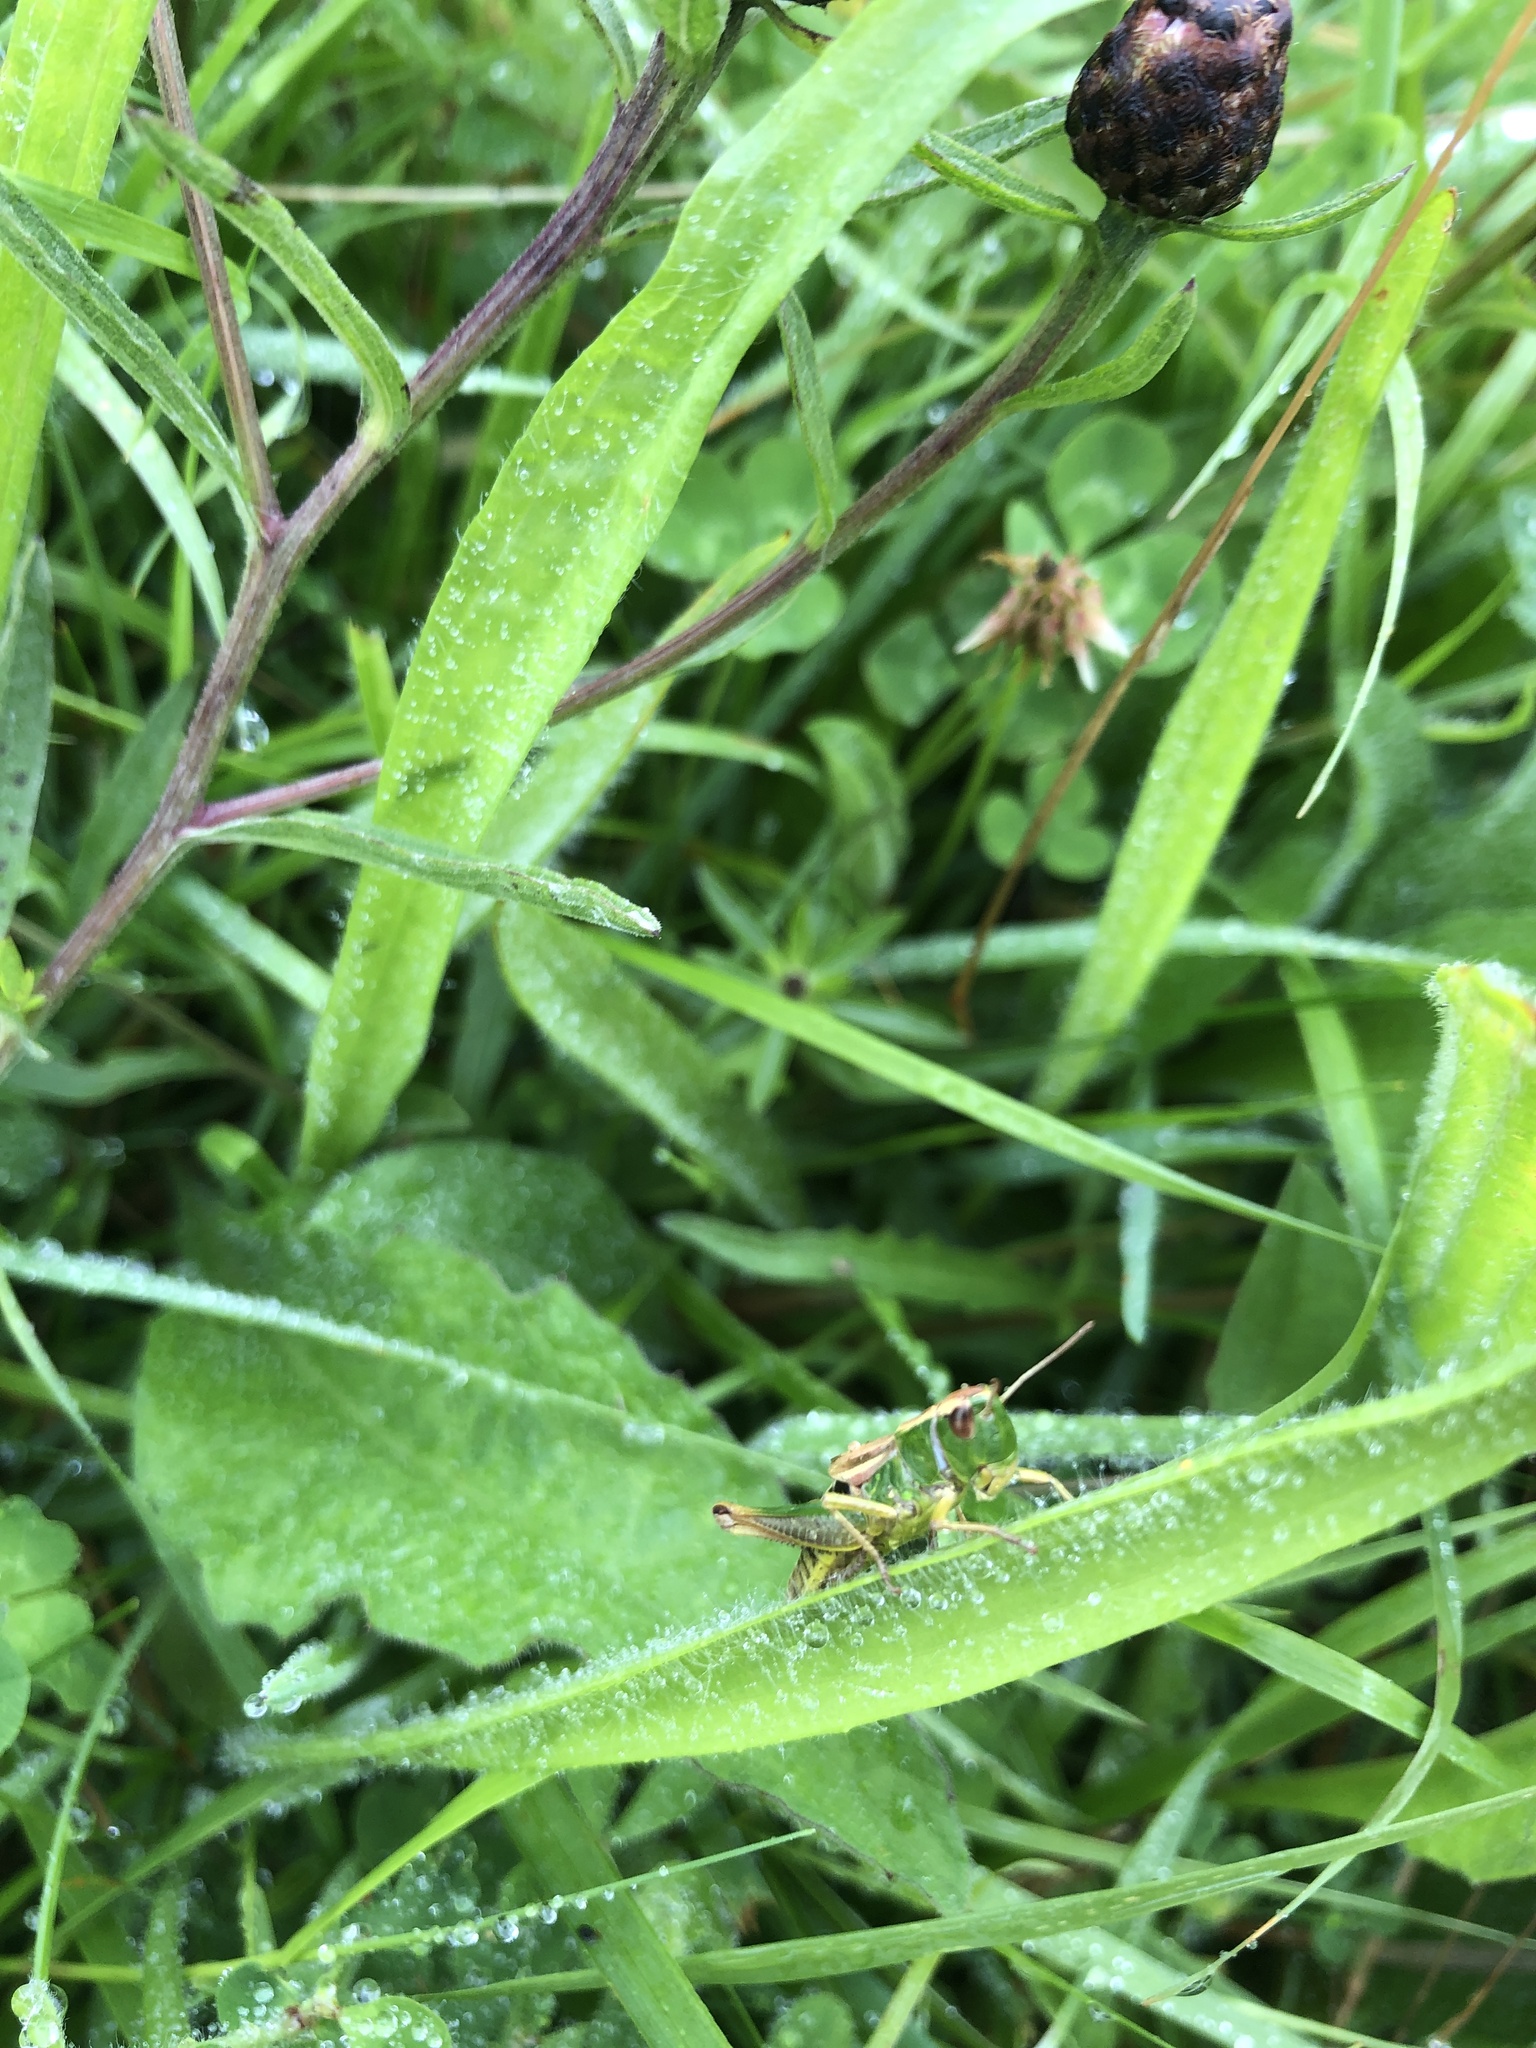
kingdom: Animalia
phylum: Arthropoda
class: Insecta
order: Orthoptera
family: Acrididae
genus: Pseudochorthippus
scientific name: Pseudochorthippus parallelus
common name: Meadow grasshopper
